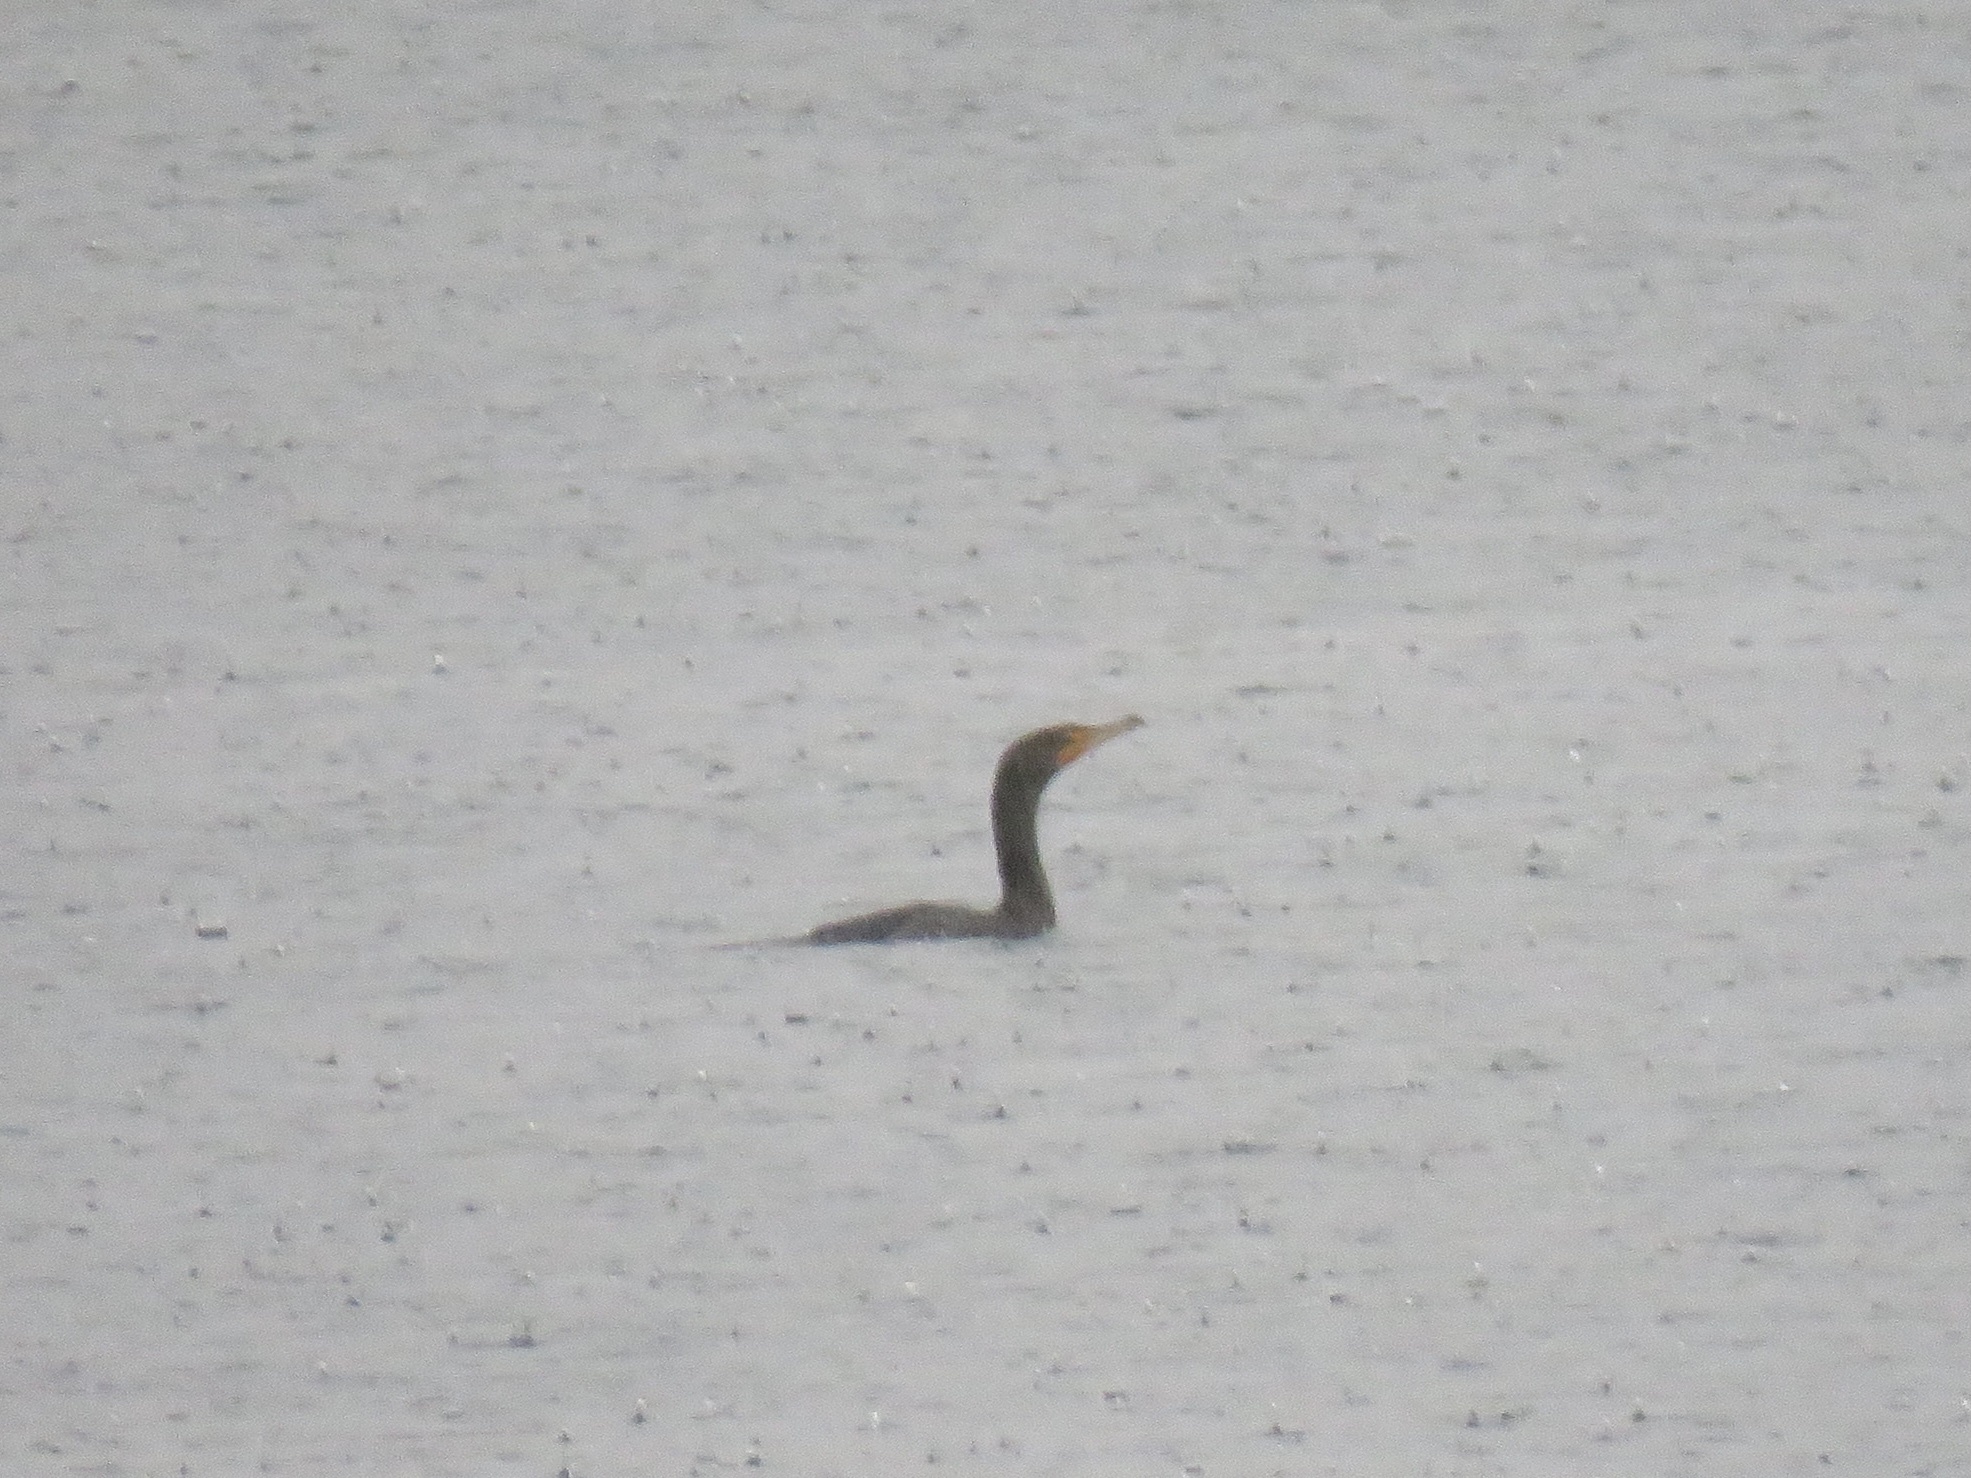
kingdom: Animalia
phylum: Chordata
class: Aves
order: Suliformes
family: Phalacrocoracidae
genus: Phalacrocorax
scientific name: Phalacrocorax auritus
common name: Double-crested cormorant
